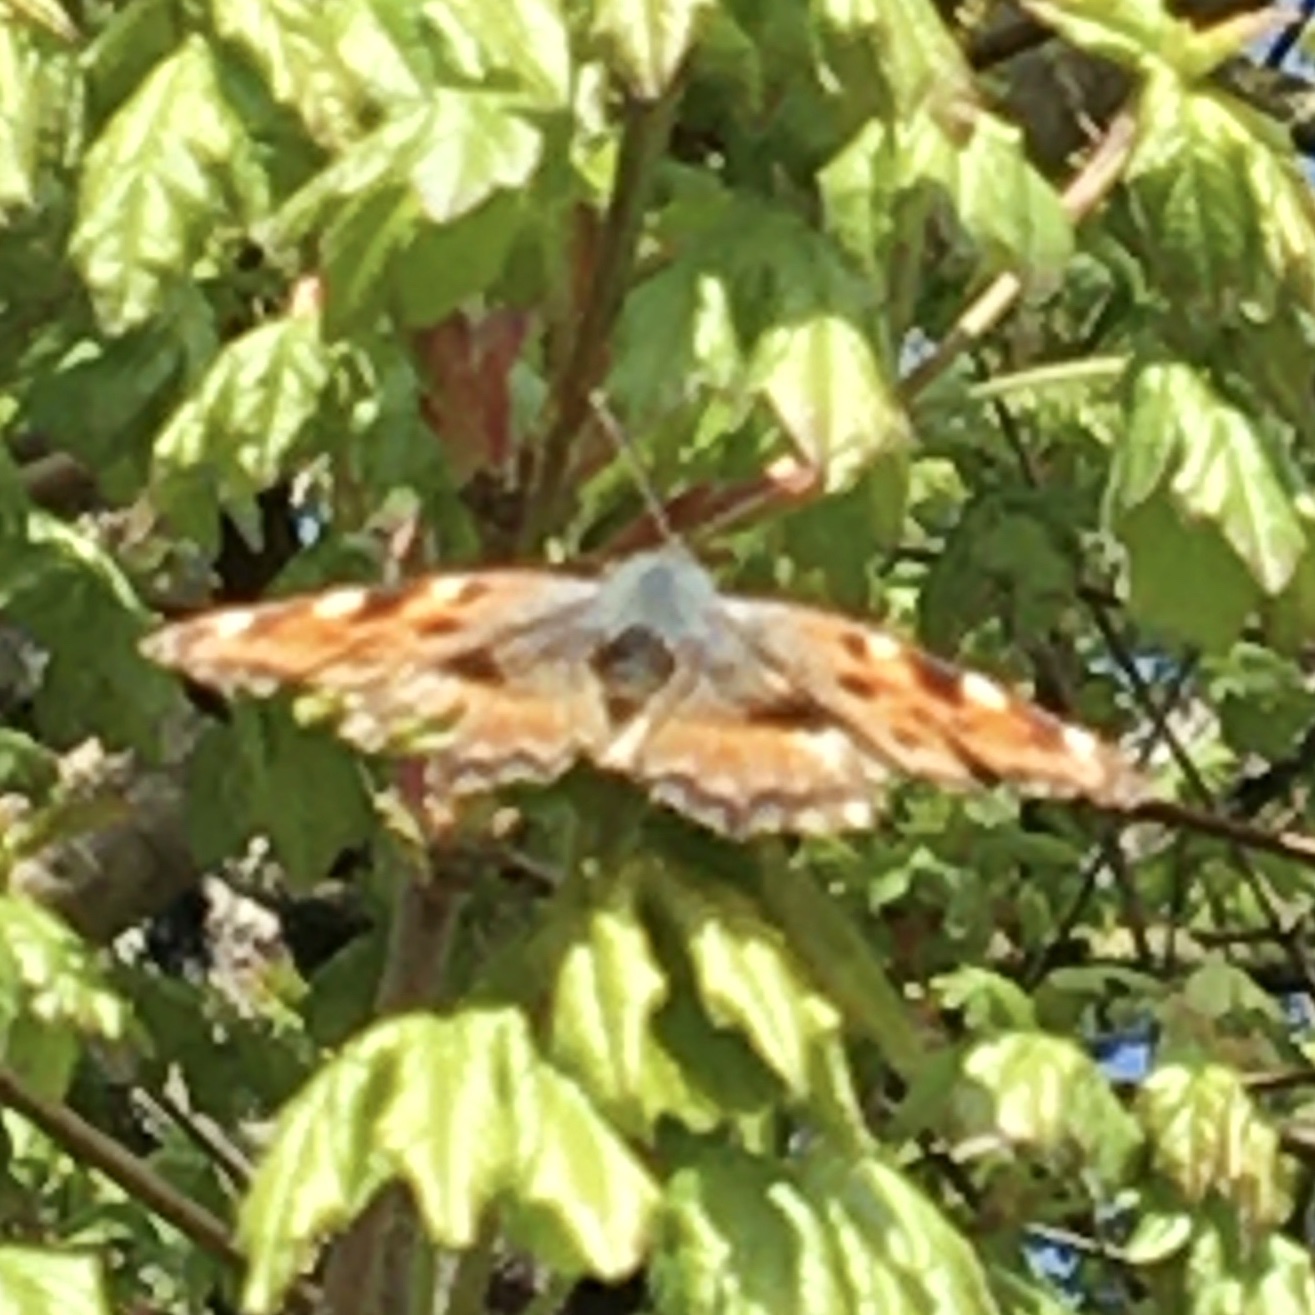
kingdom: Animalia
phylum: Arthropoda
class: Insecta
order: Lepidoptera
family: Nymphalidae
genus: Nymphalis
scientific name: Nymphalis polychloros
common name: Large tortoiseshell
